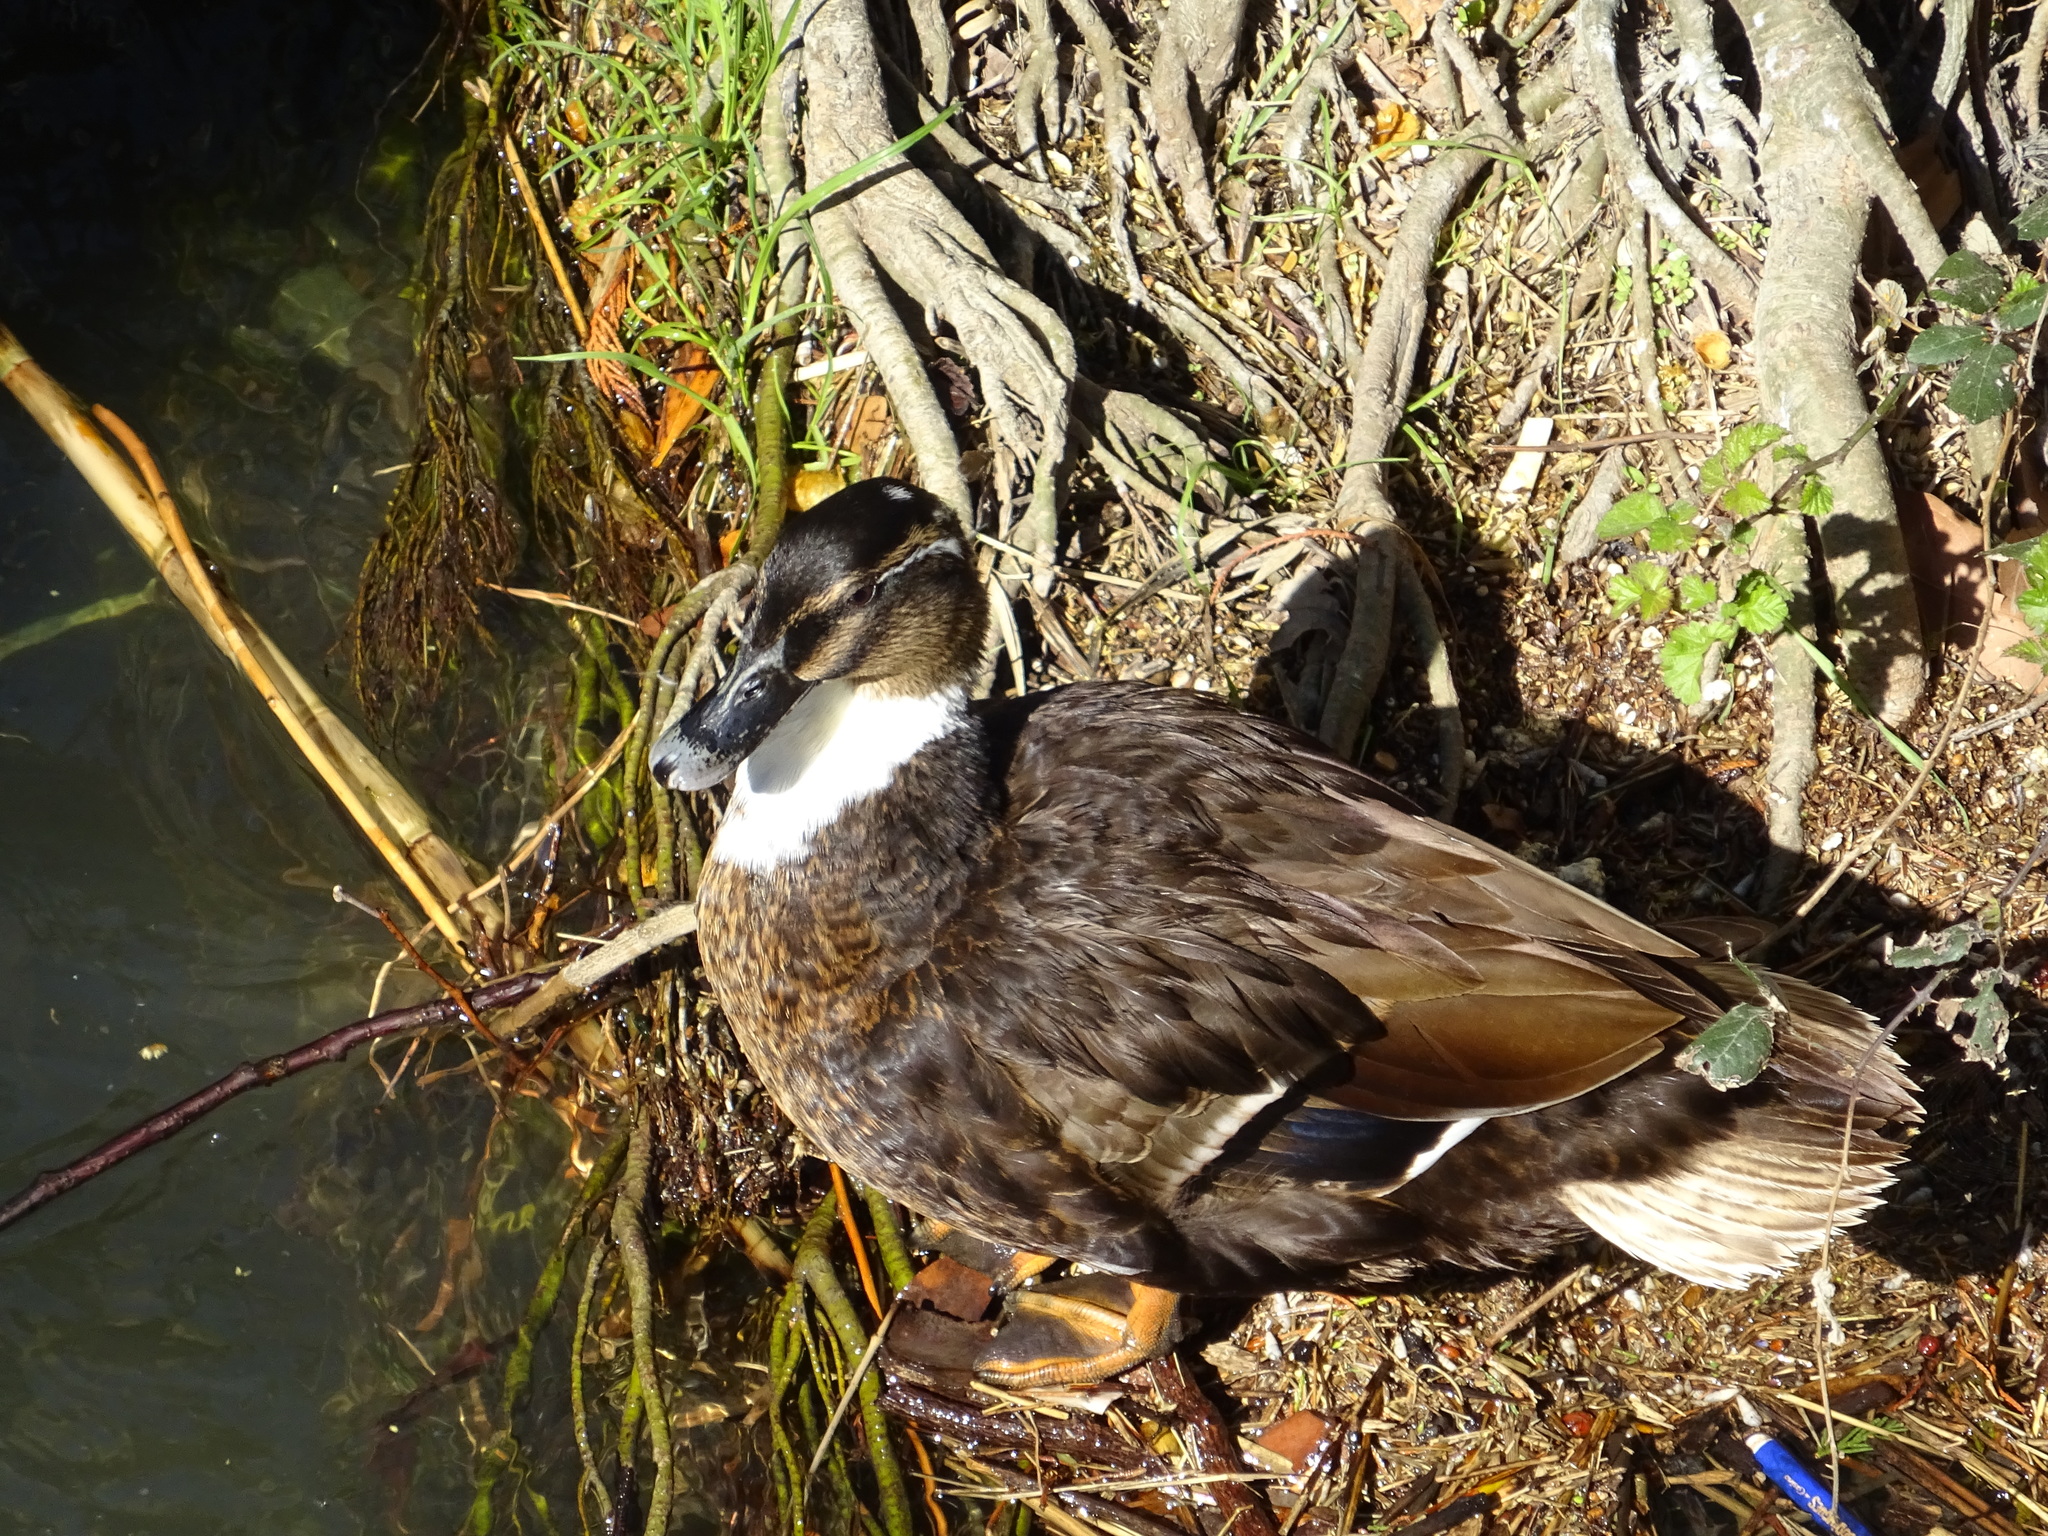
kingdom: Animalia
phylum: Chordata
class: Aves
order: Anseriformes
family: Anatidae
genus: Anas
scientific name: Anas platyrhynchos
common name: Mallard
